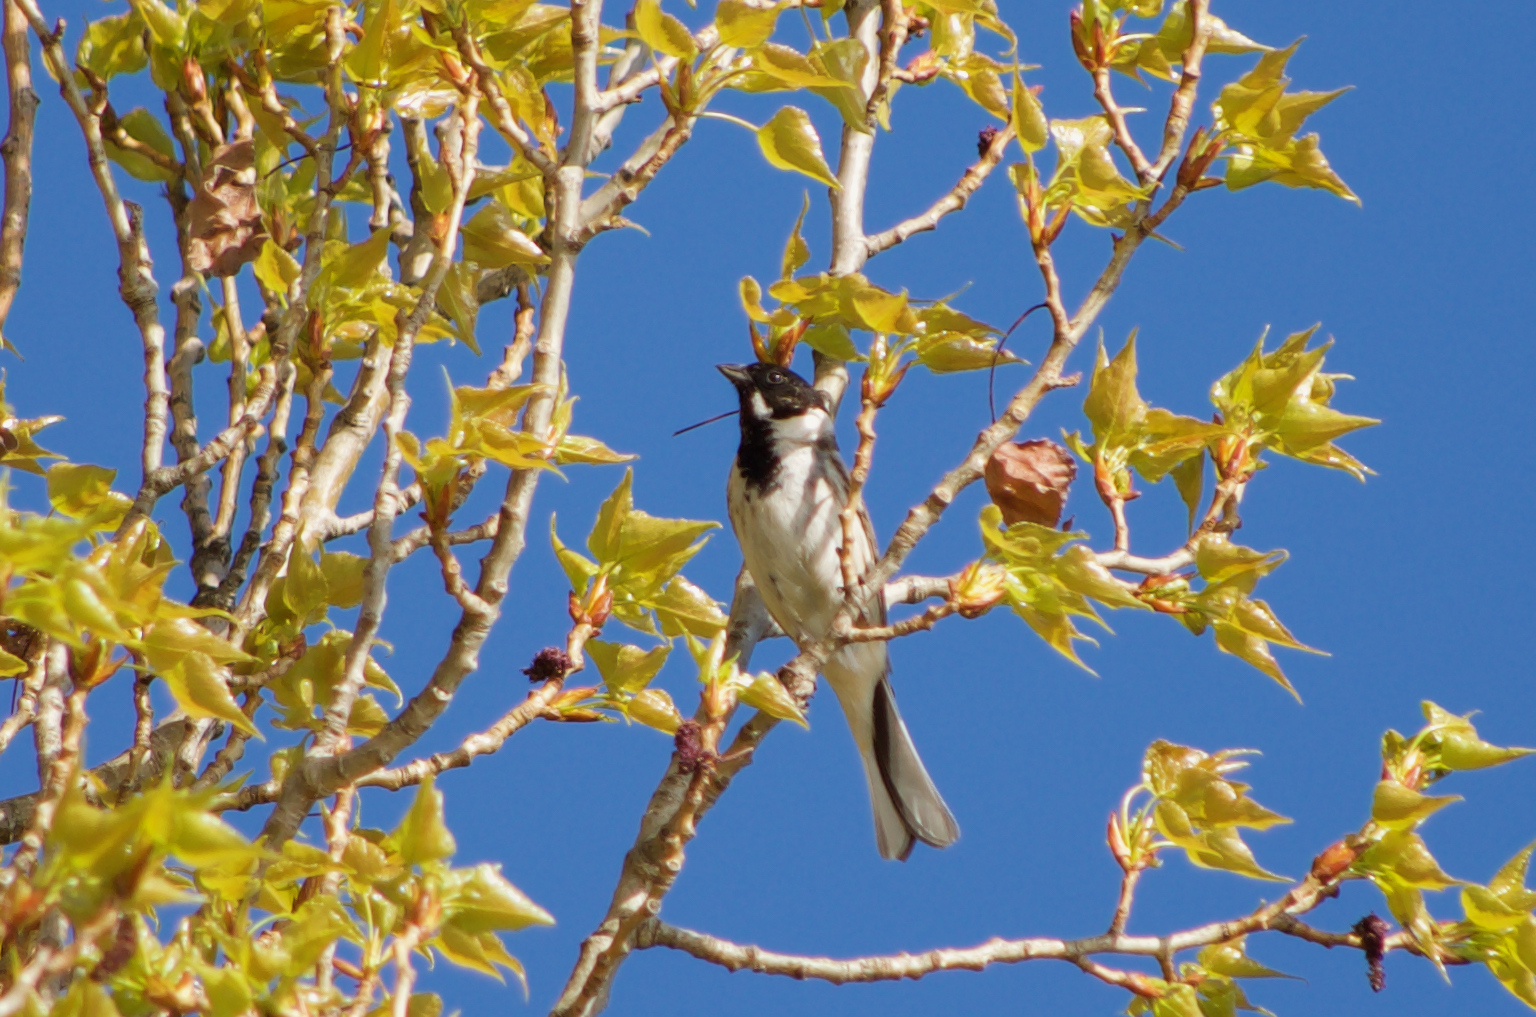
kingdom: Animalia
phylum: Chordata
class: Aves
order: Passeriformes
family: Emberizidae
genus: Emberiza
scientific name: Emberiza schoeniclus
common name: Reed bunting
